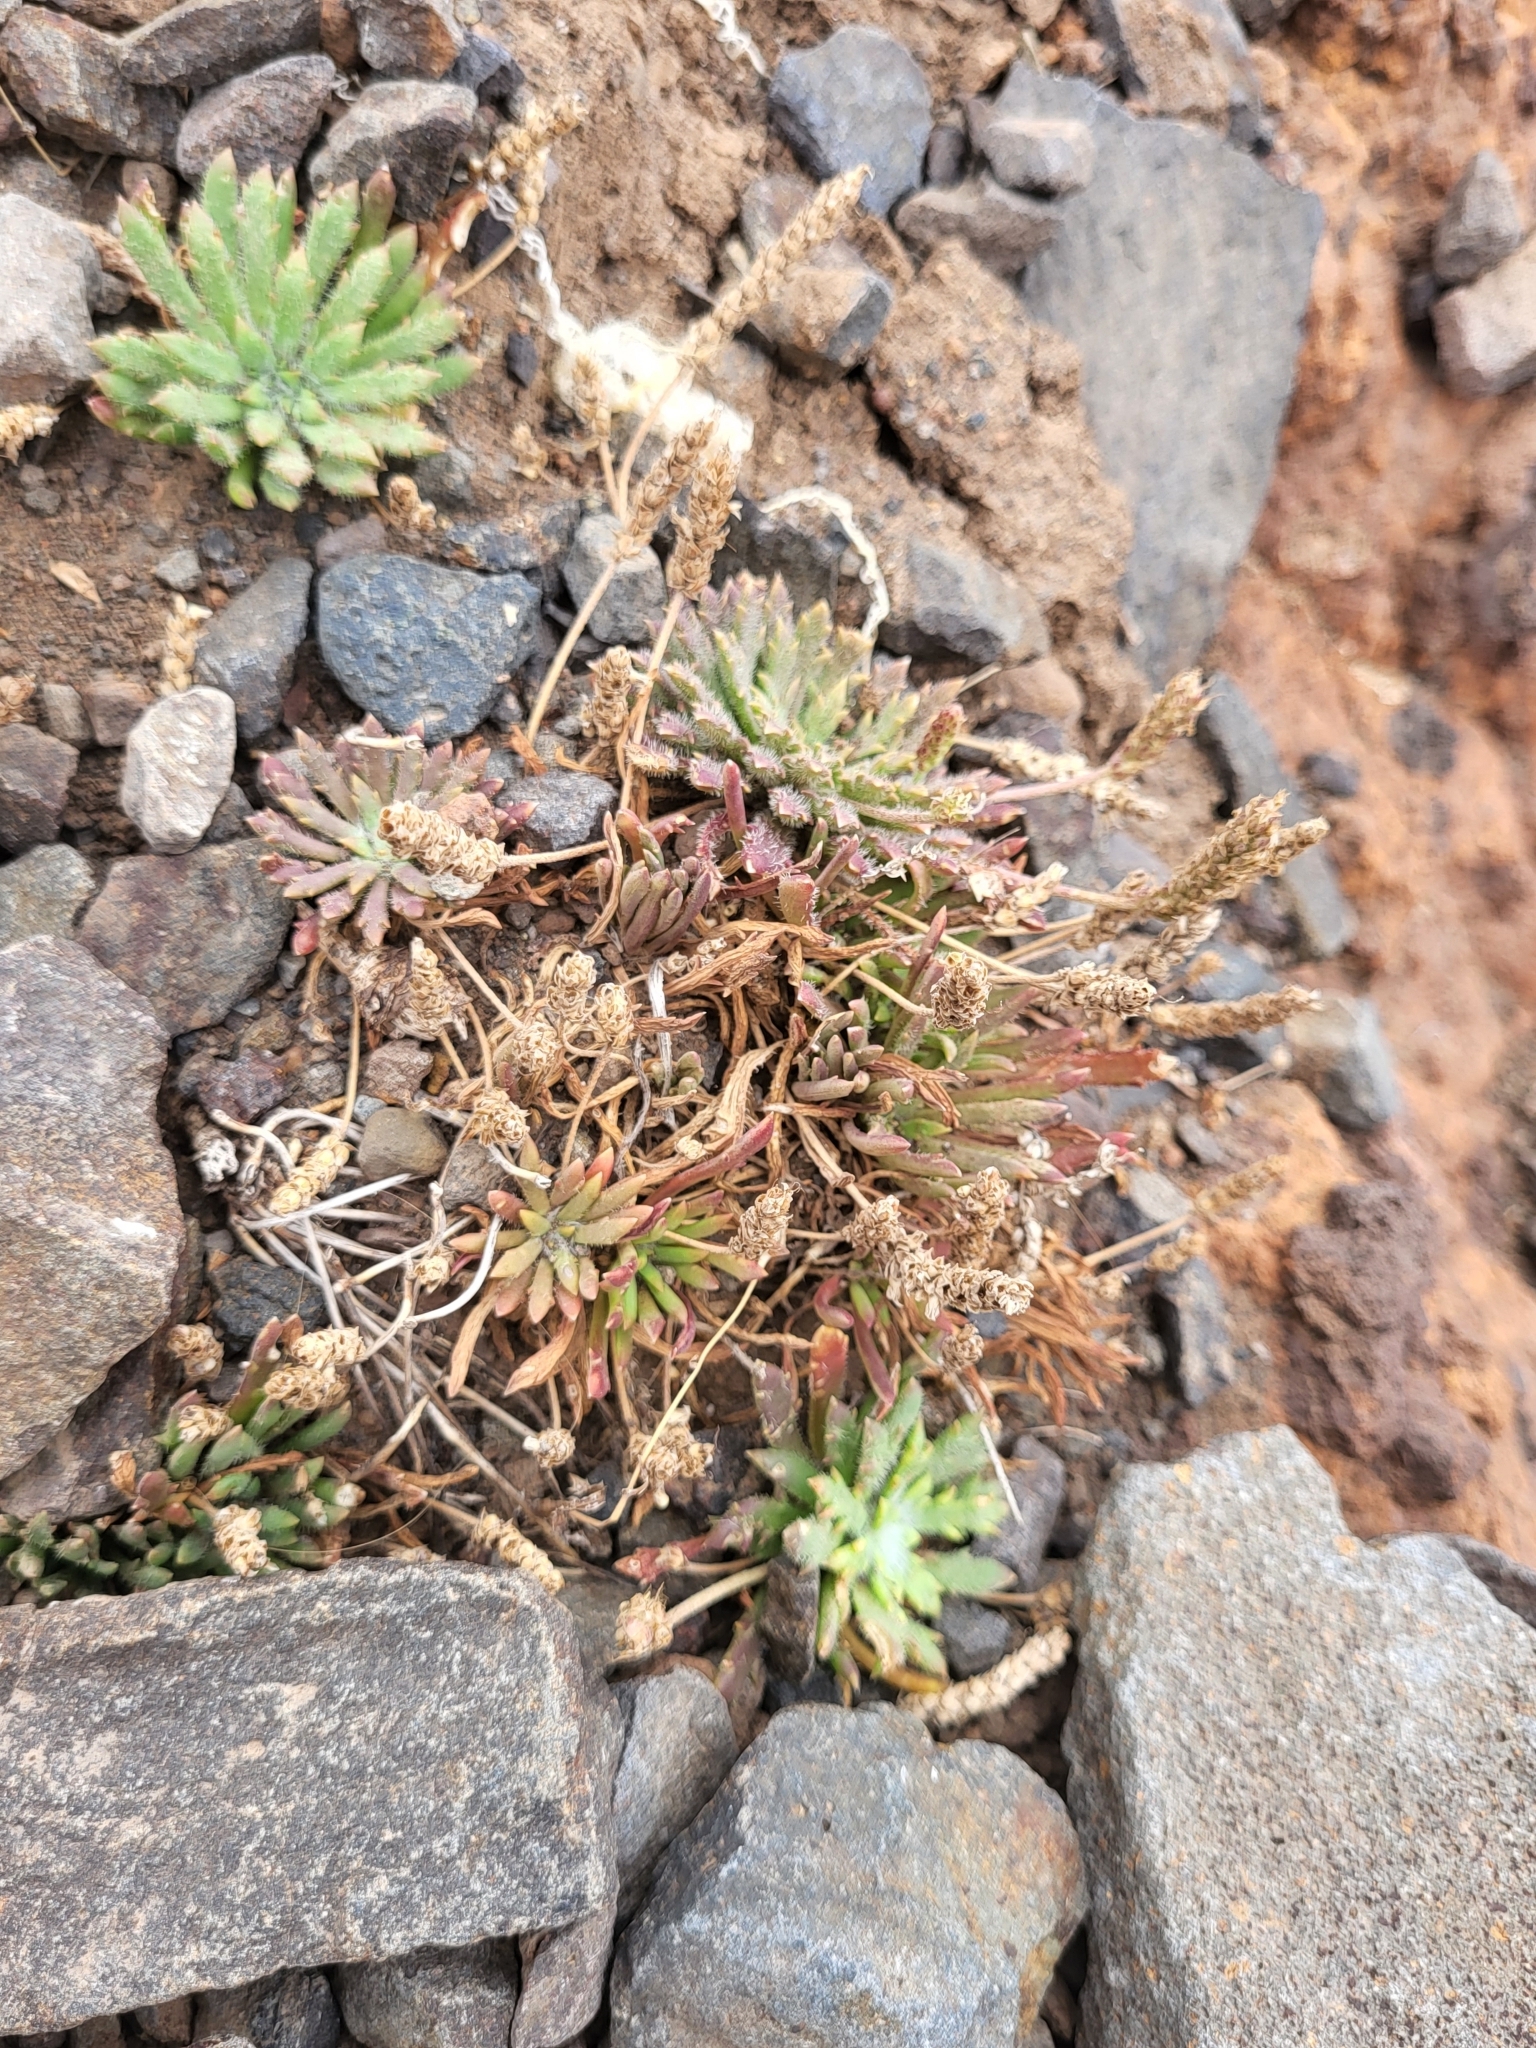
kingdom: Plantae
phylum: Tracheophyta
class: Magnoliopsida
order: Lamiales
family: Plantaginaceae
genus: Plantago
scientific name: Plantago coronopus
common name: Buck's-horn plantain
